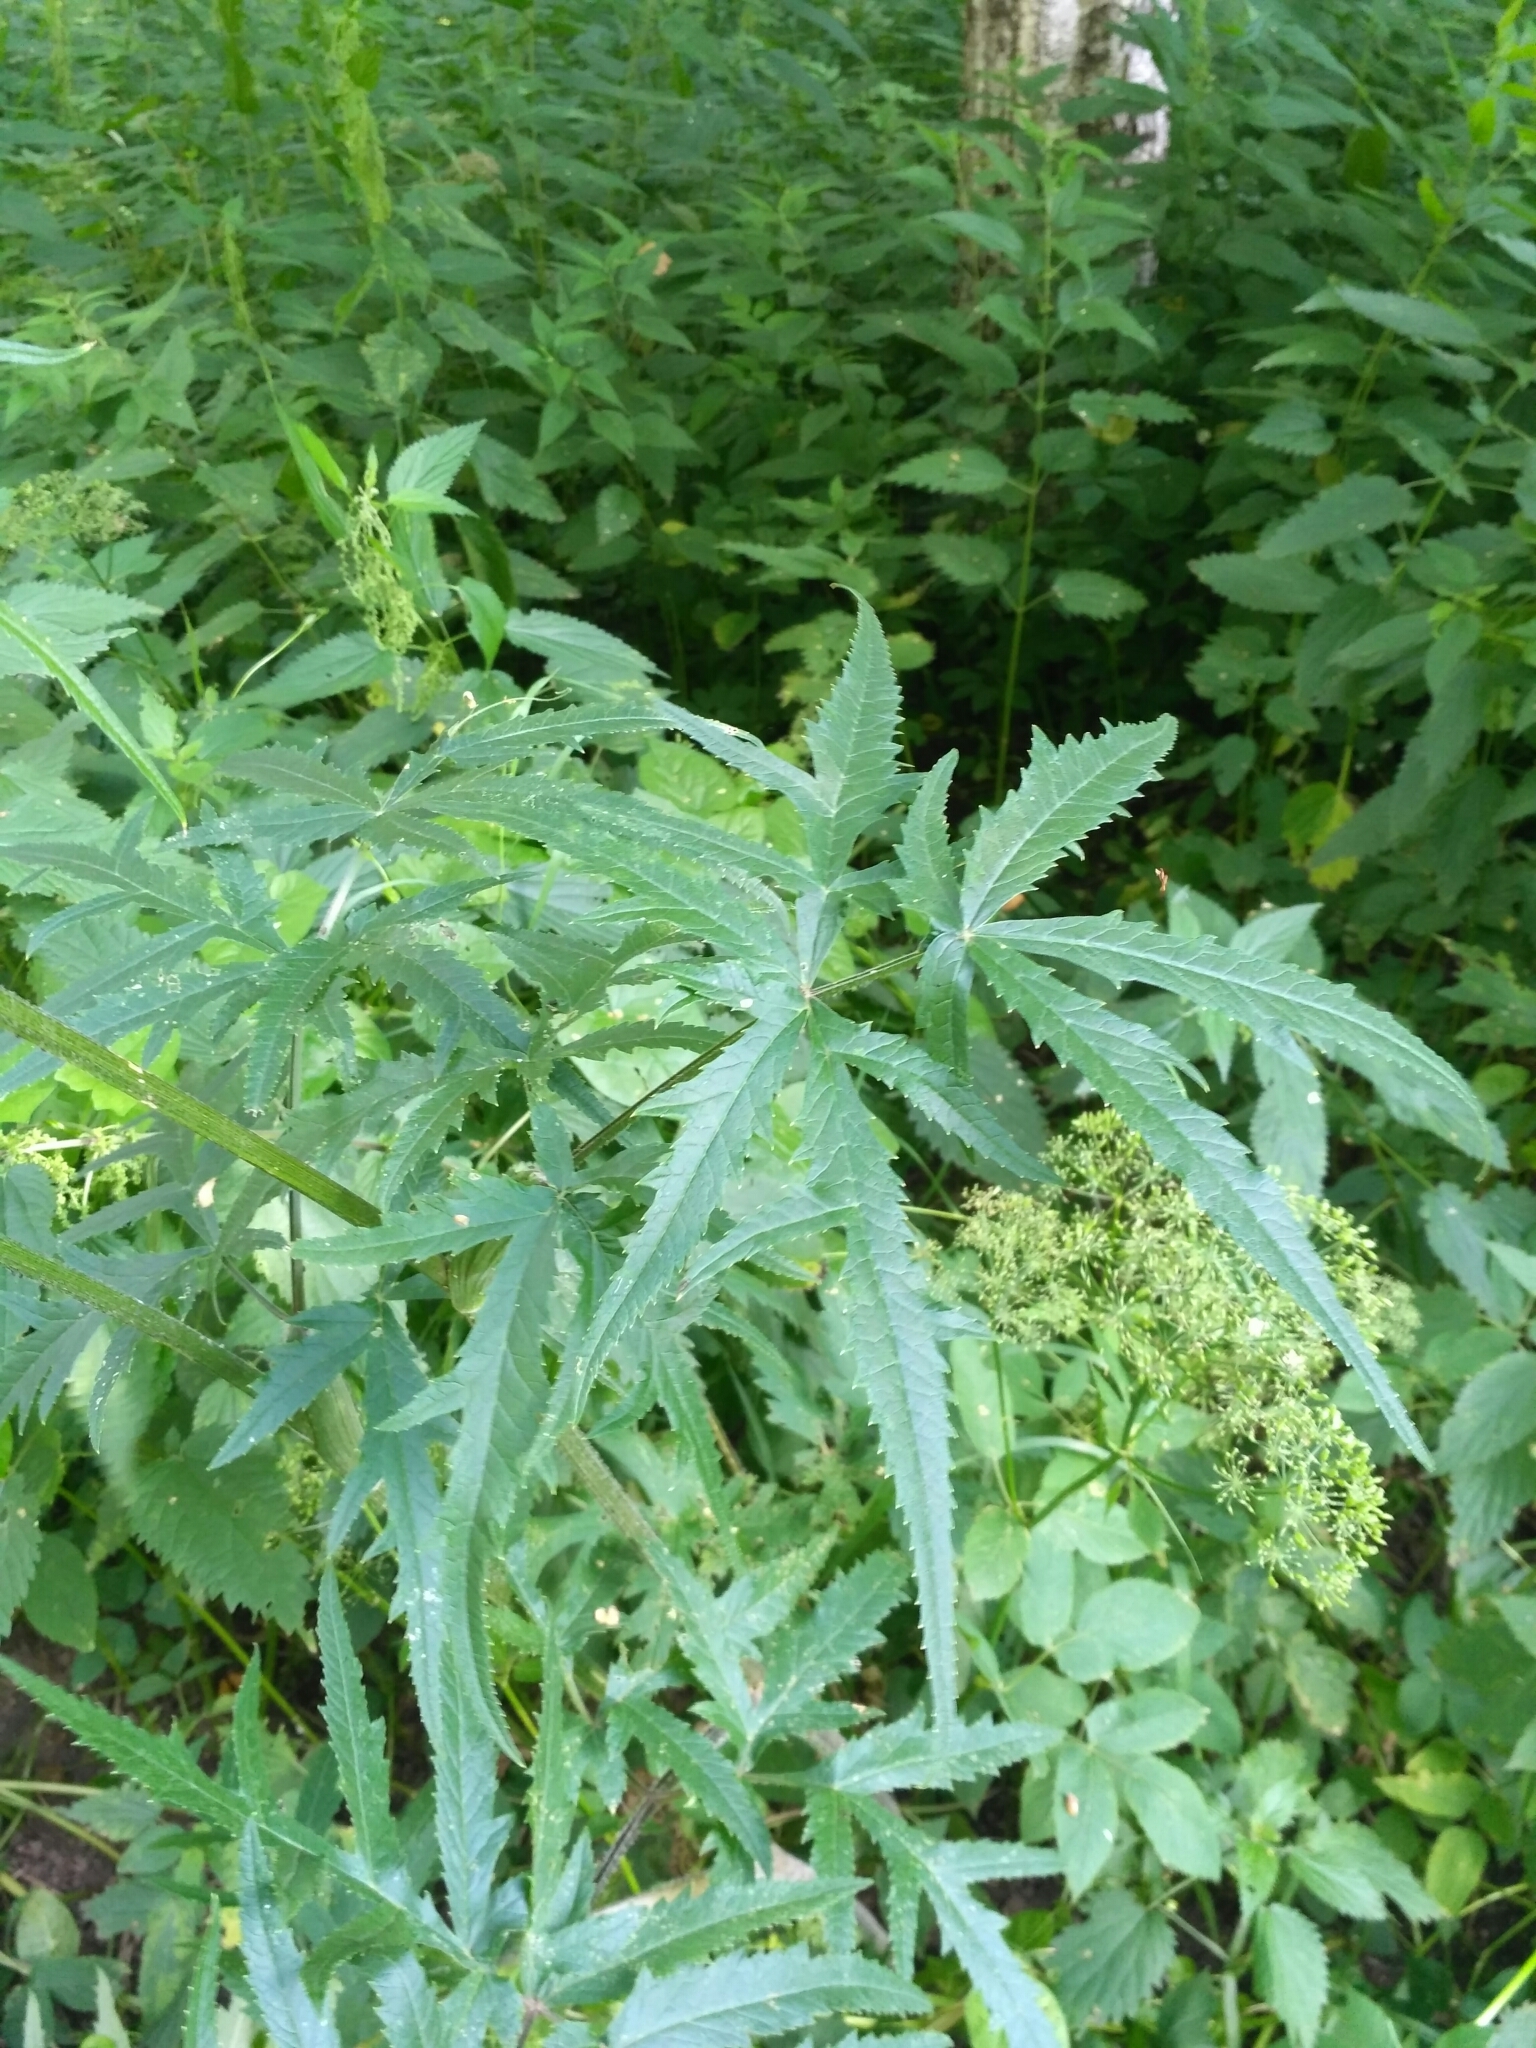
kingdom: Plantae
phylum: Tracheophyta
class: Magnoliopsida
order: Apiales
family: Apiaceae
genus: Heracleum
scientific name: Heracleum sphondylium
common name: Hogweed
